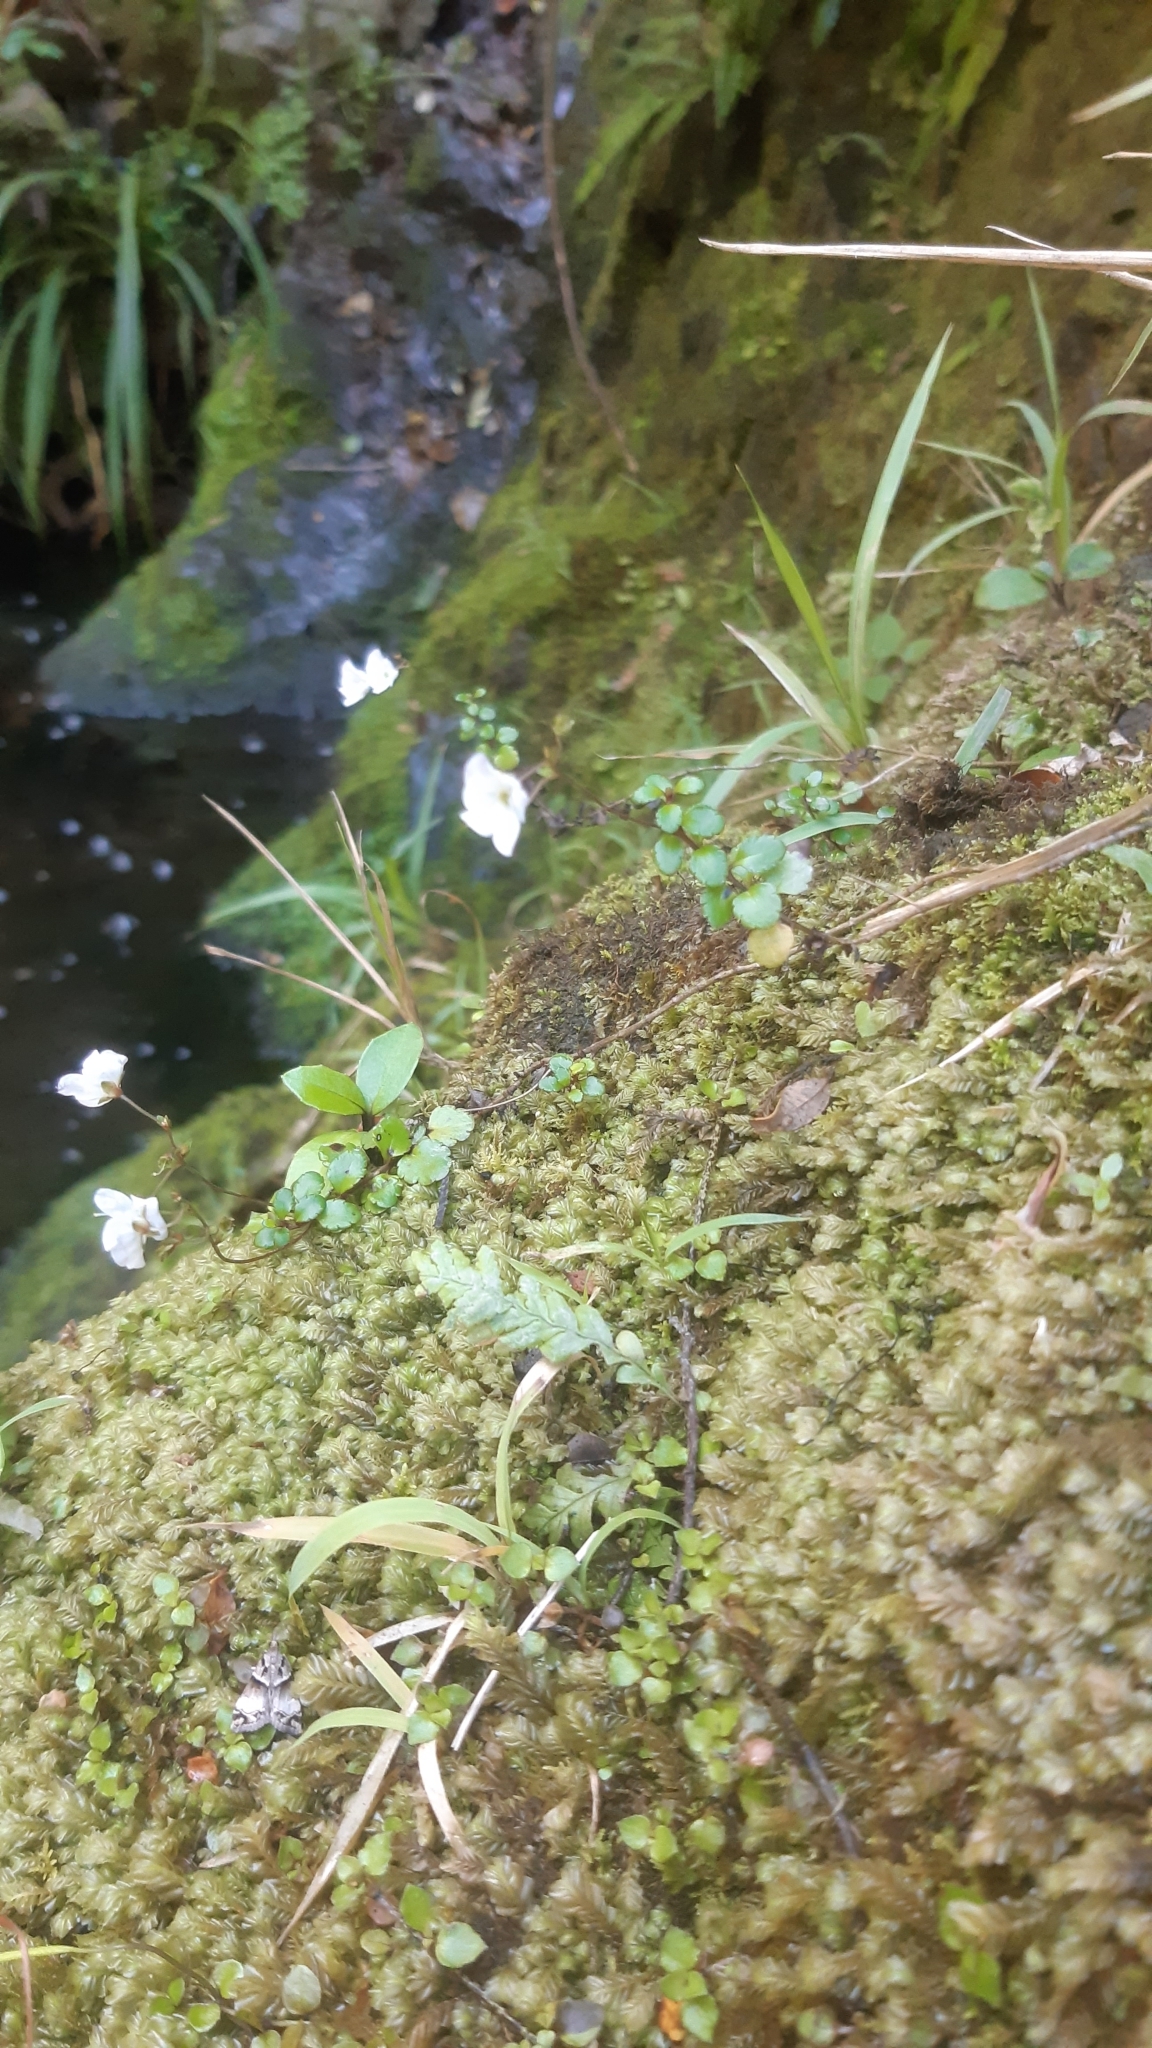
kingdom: Plantae
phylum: Tracheophyta
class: Magnoliopsida
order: Lamiales
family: Plantaginaceae
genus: Veronica
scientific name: Veronica lyallii
